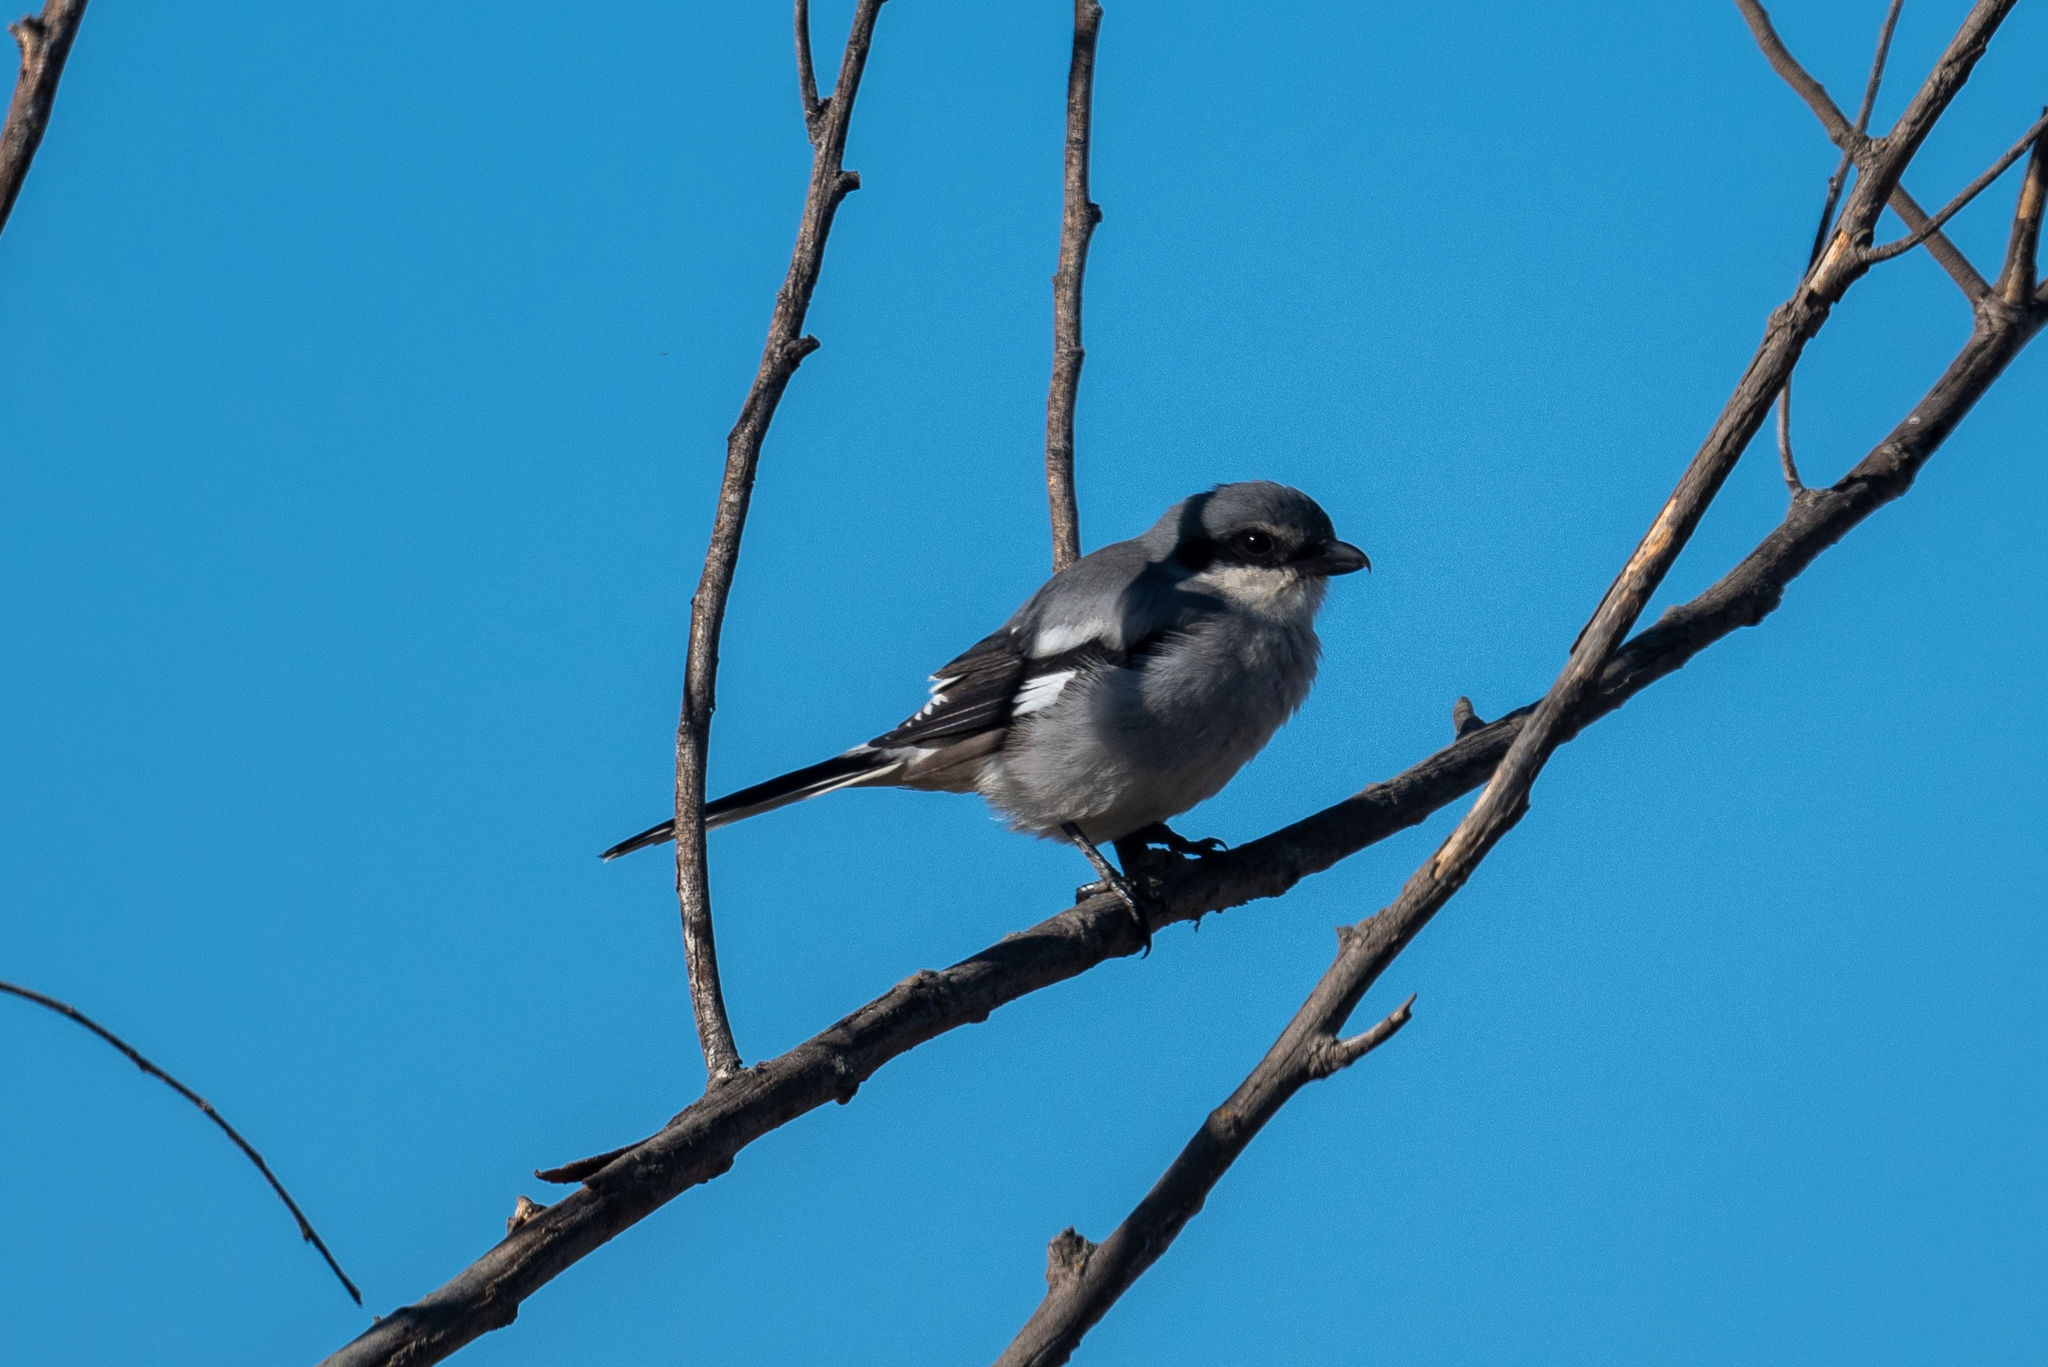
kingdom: Animalia
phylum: Chordata
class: Aves
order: Passeriformes
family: Laniidae
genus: Lanius
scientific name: Lanius ludovicianus
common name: Loggerhead shrike
